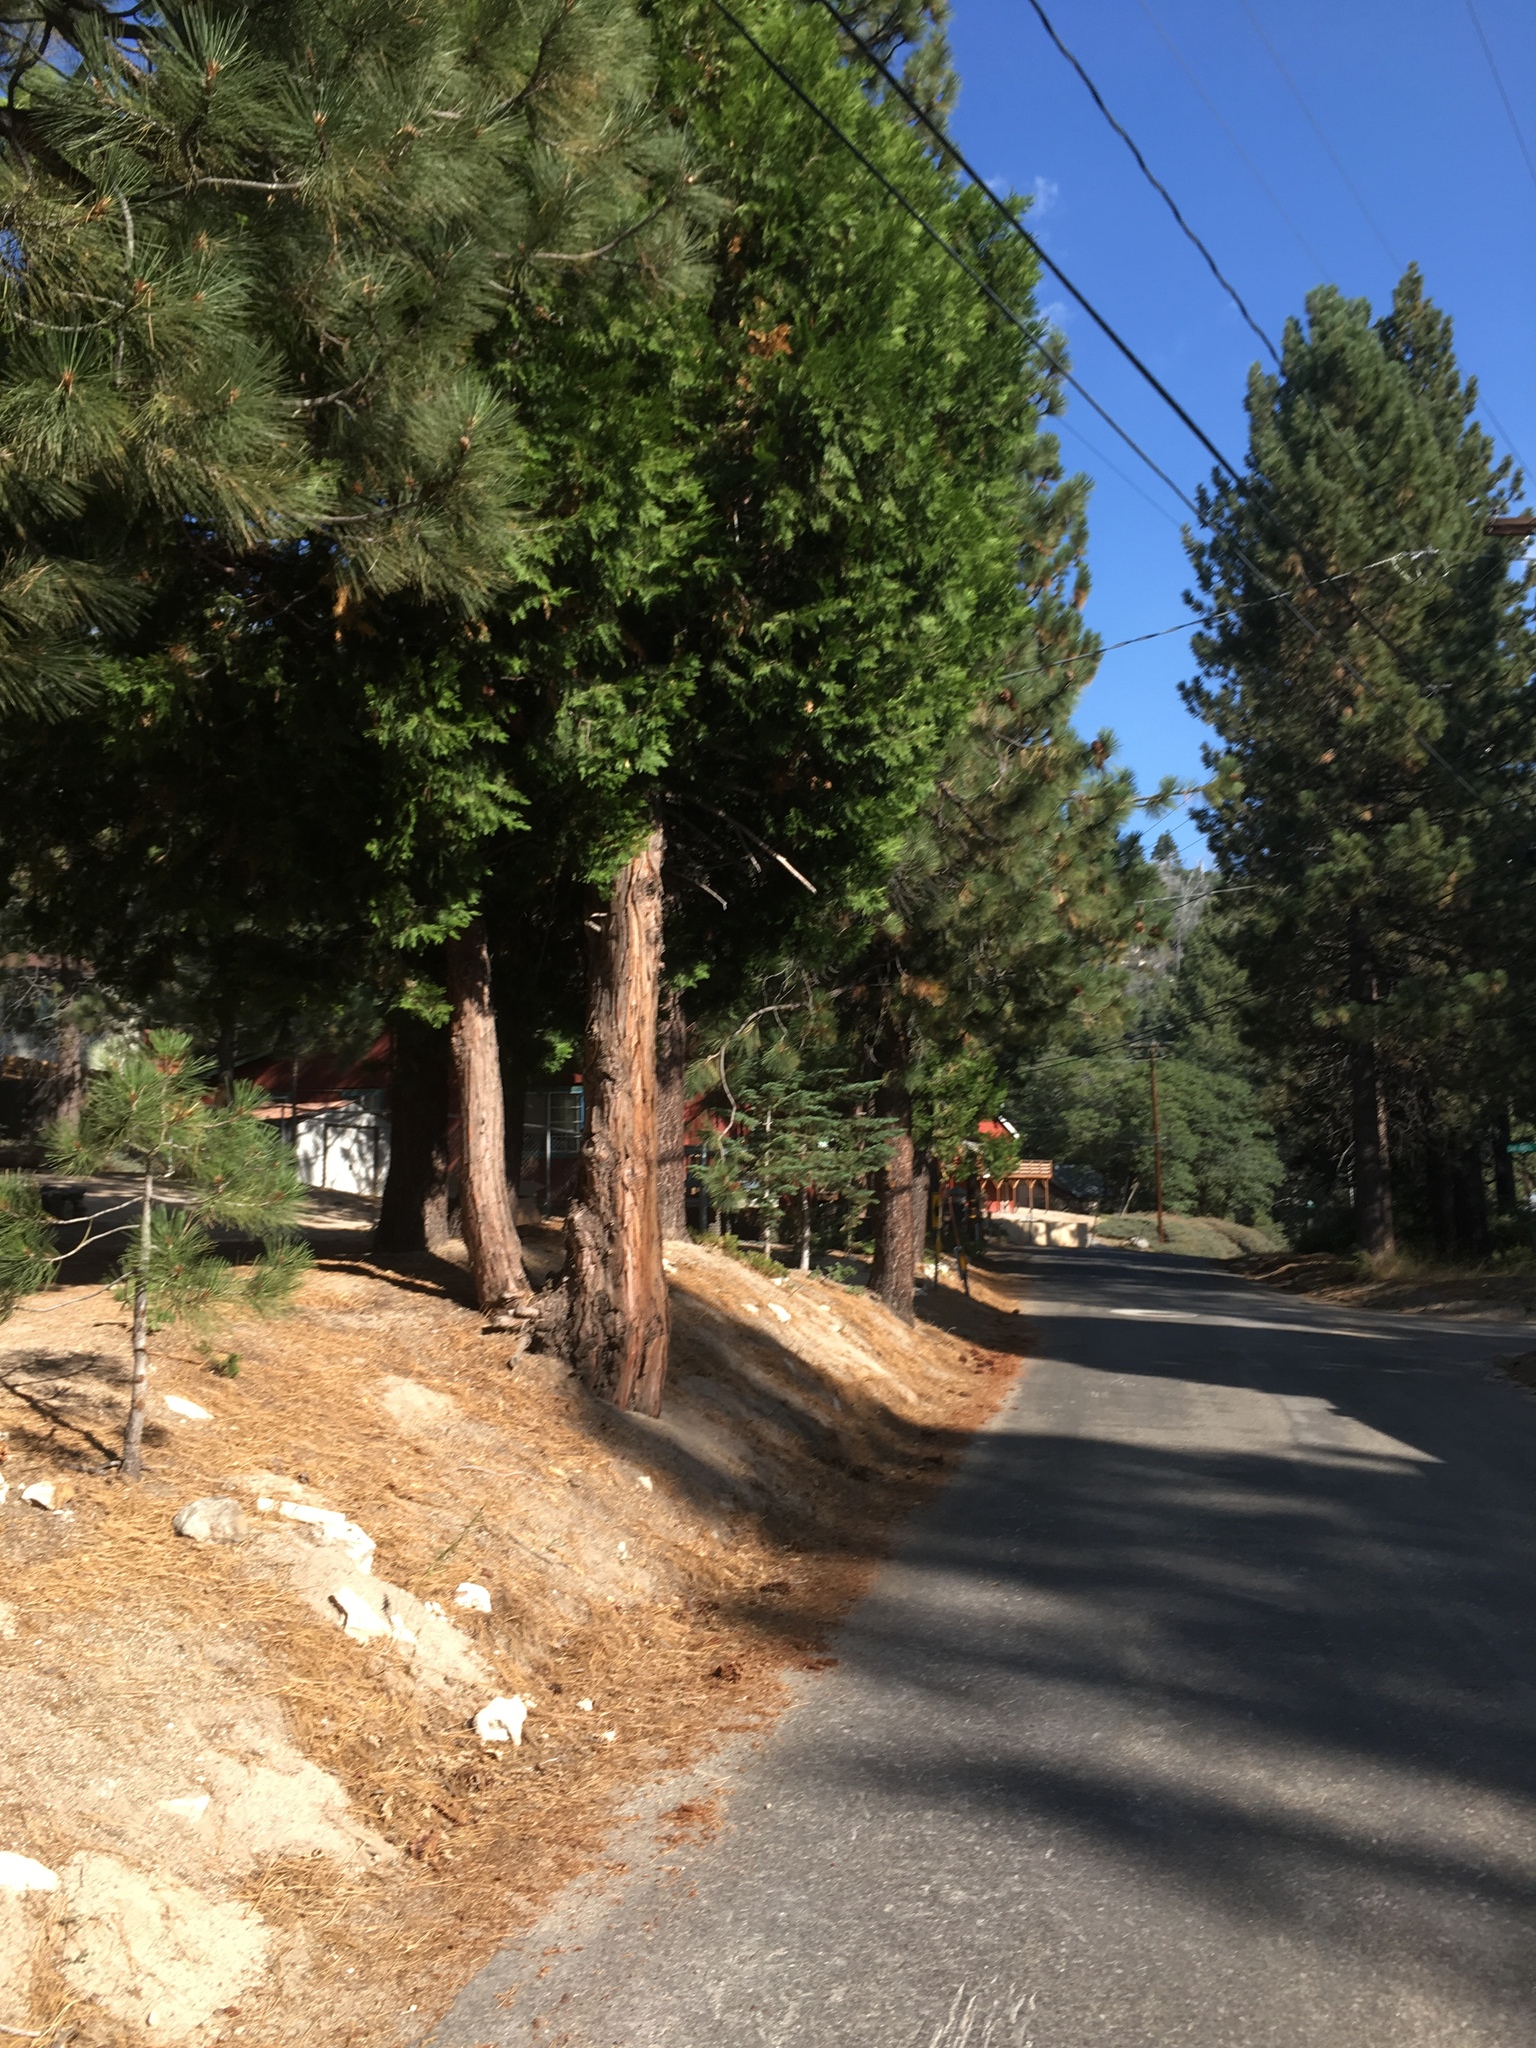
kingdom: Plantae
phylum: Tracheophyta
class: Pinopsida
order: Pinales
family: Cupressaceae
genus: Calocedrus
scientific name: Calocedrus decurrens
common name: Californian incense-cedar
